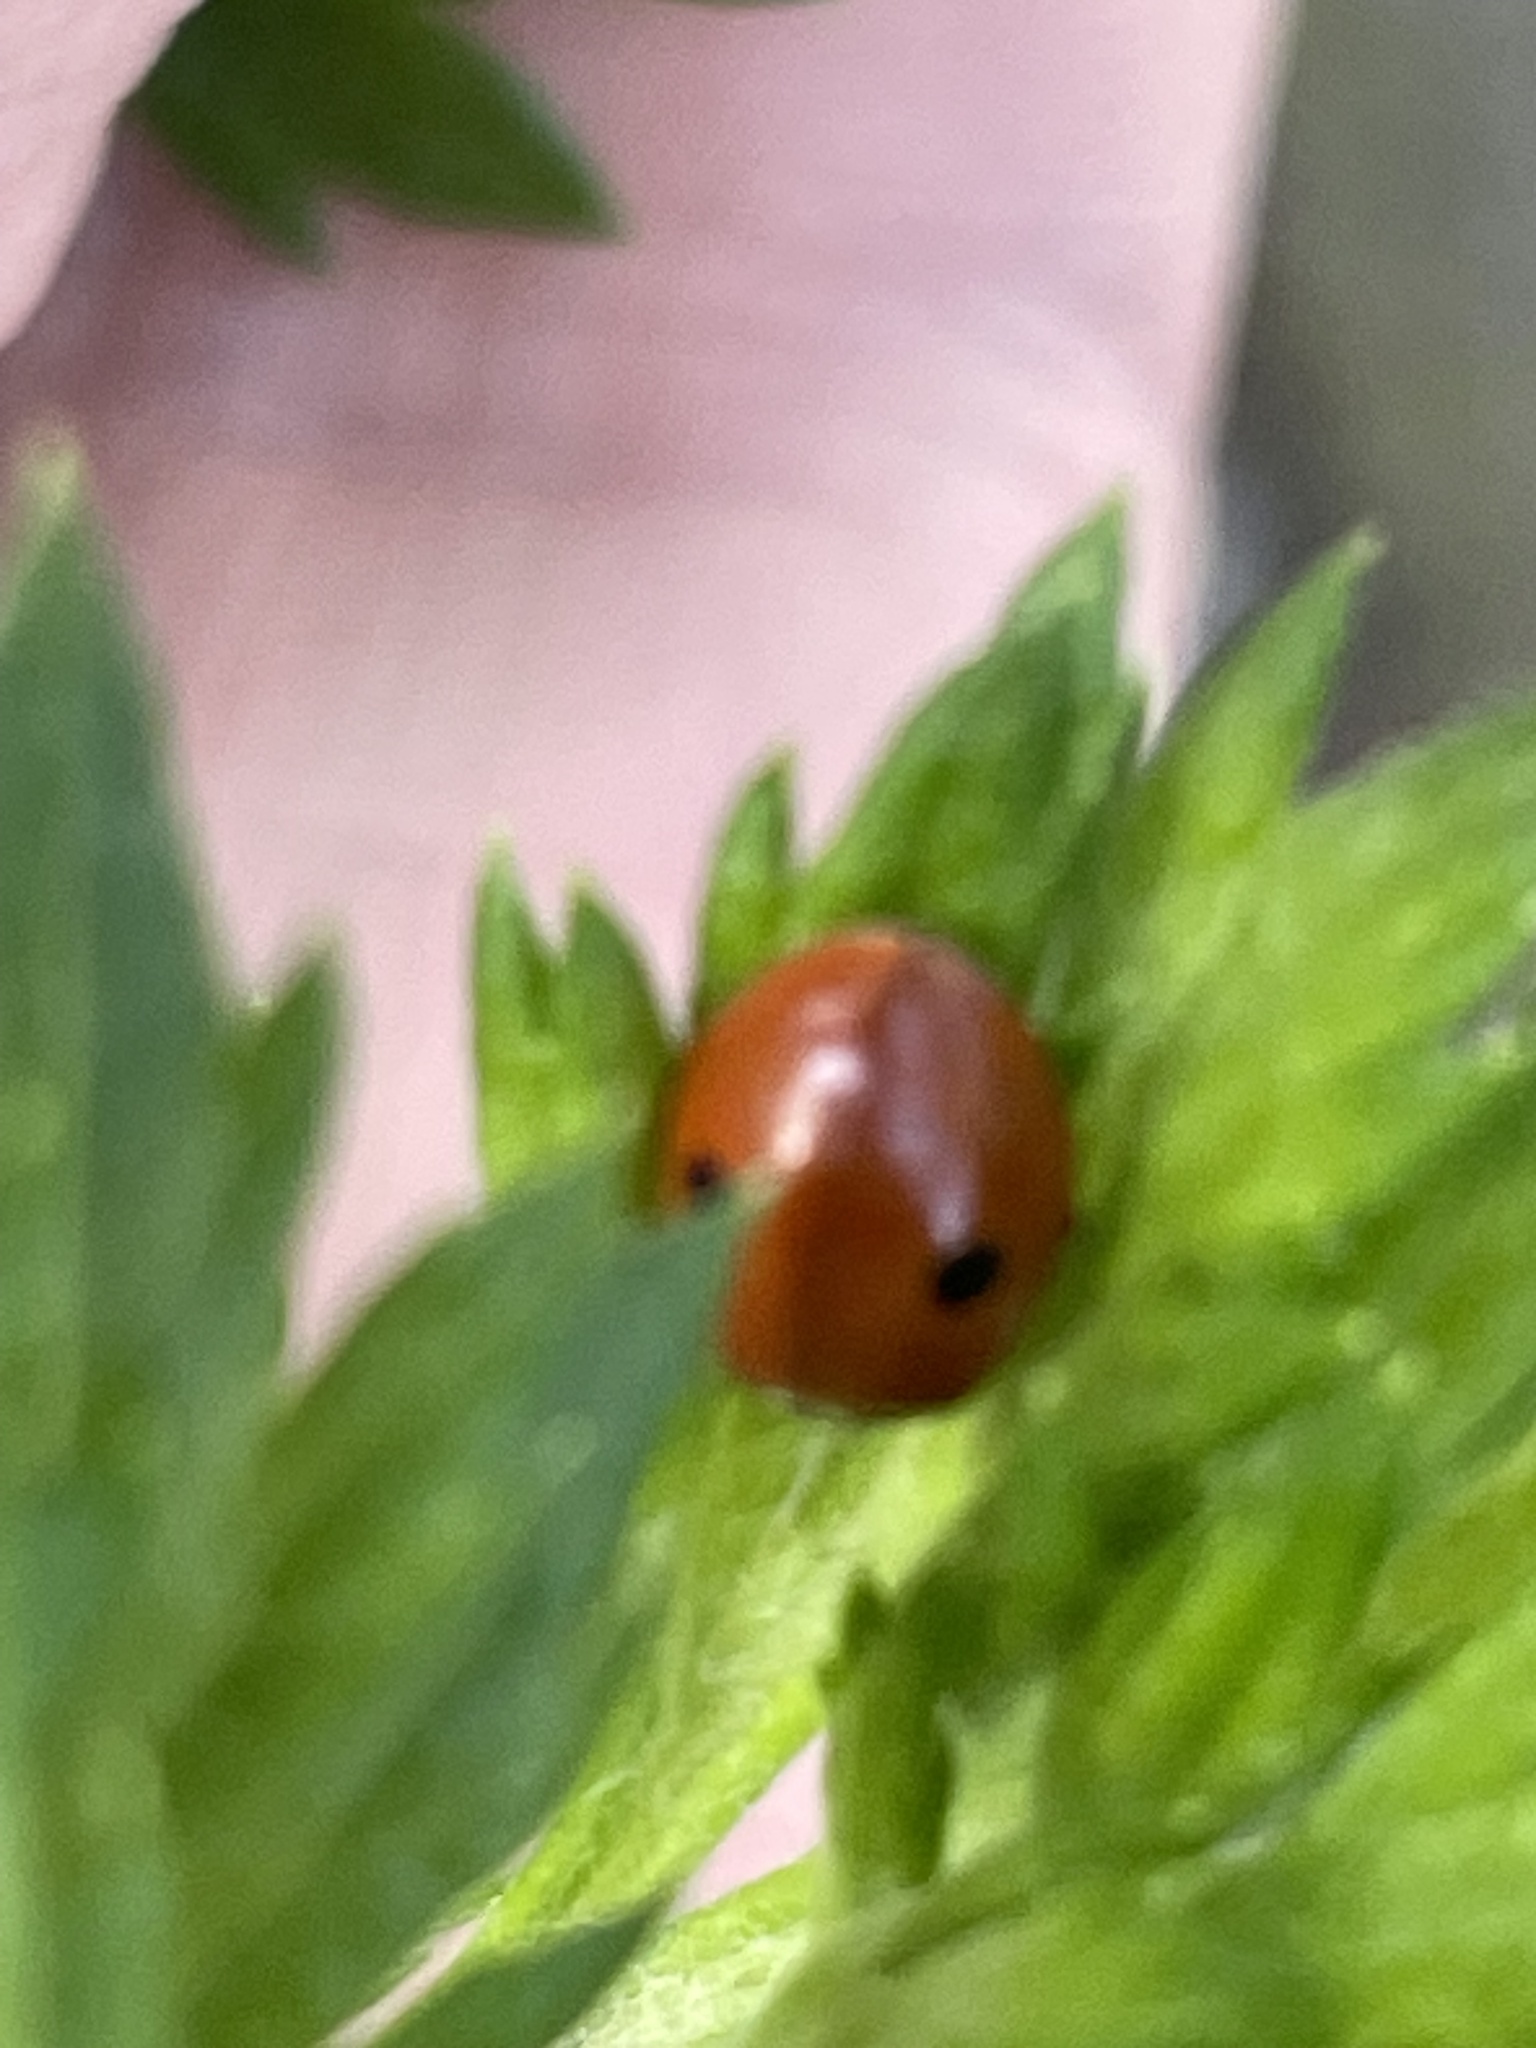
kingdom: Animalia
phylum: Arthropoda
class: Insecta
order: Coleoptera
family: Coccinellidae
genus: Adalia
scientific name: Adalia bipunctata
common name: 2-spot ladybird
